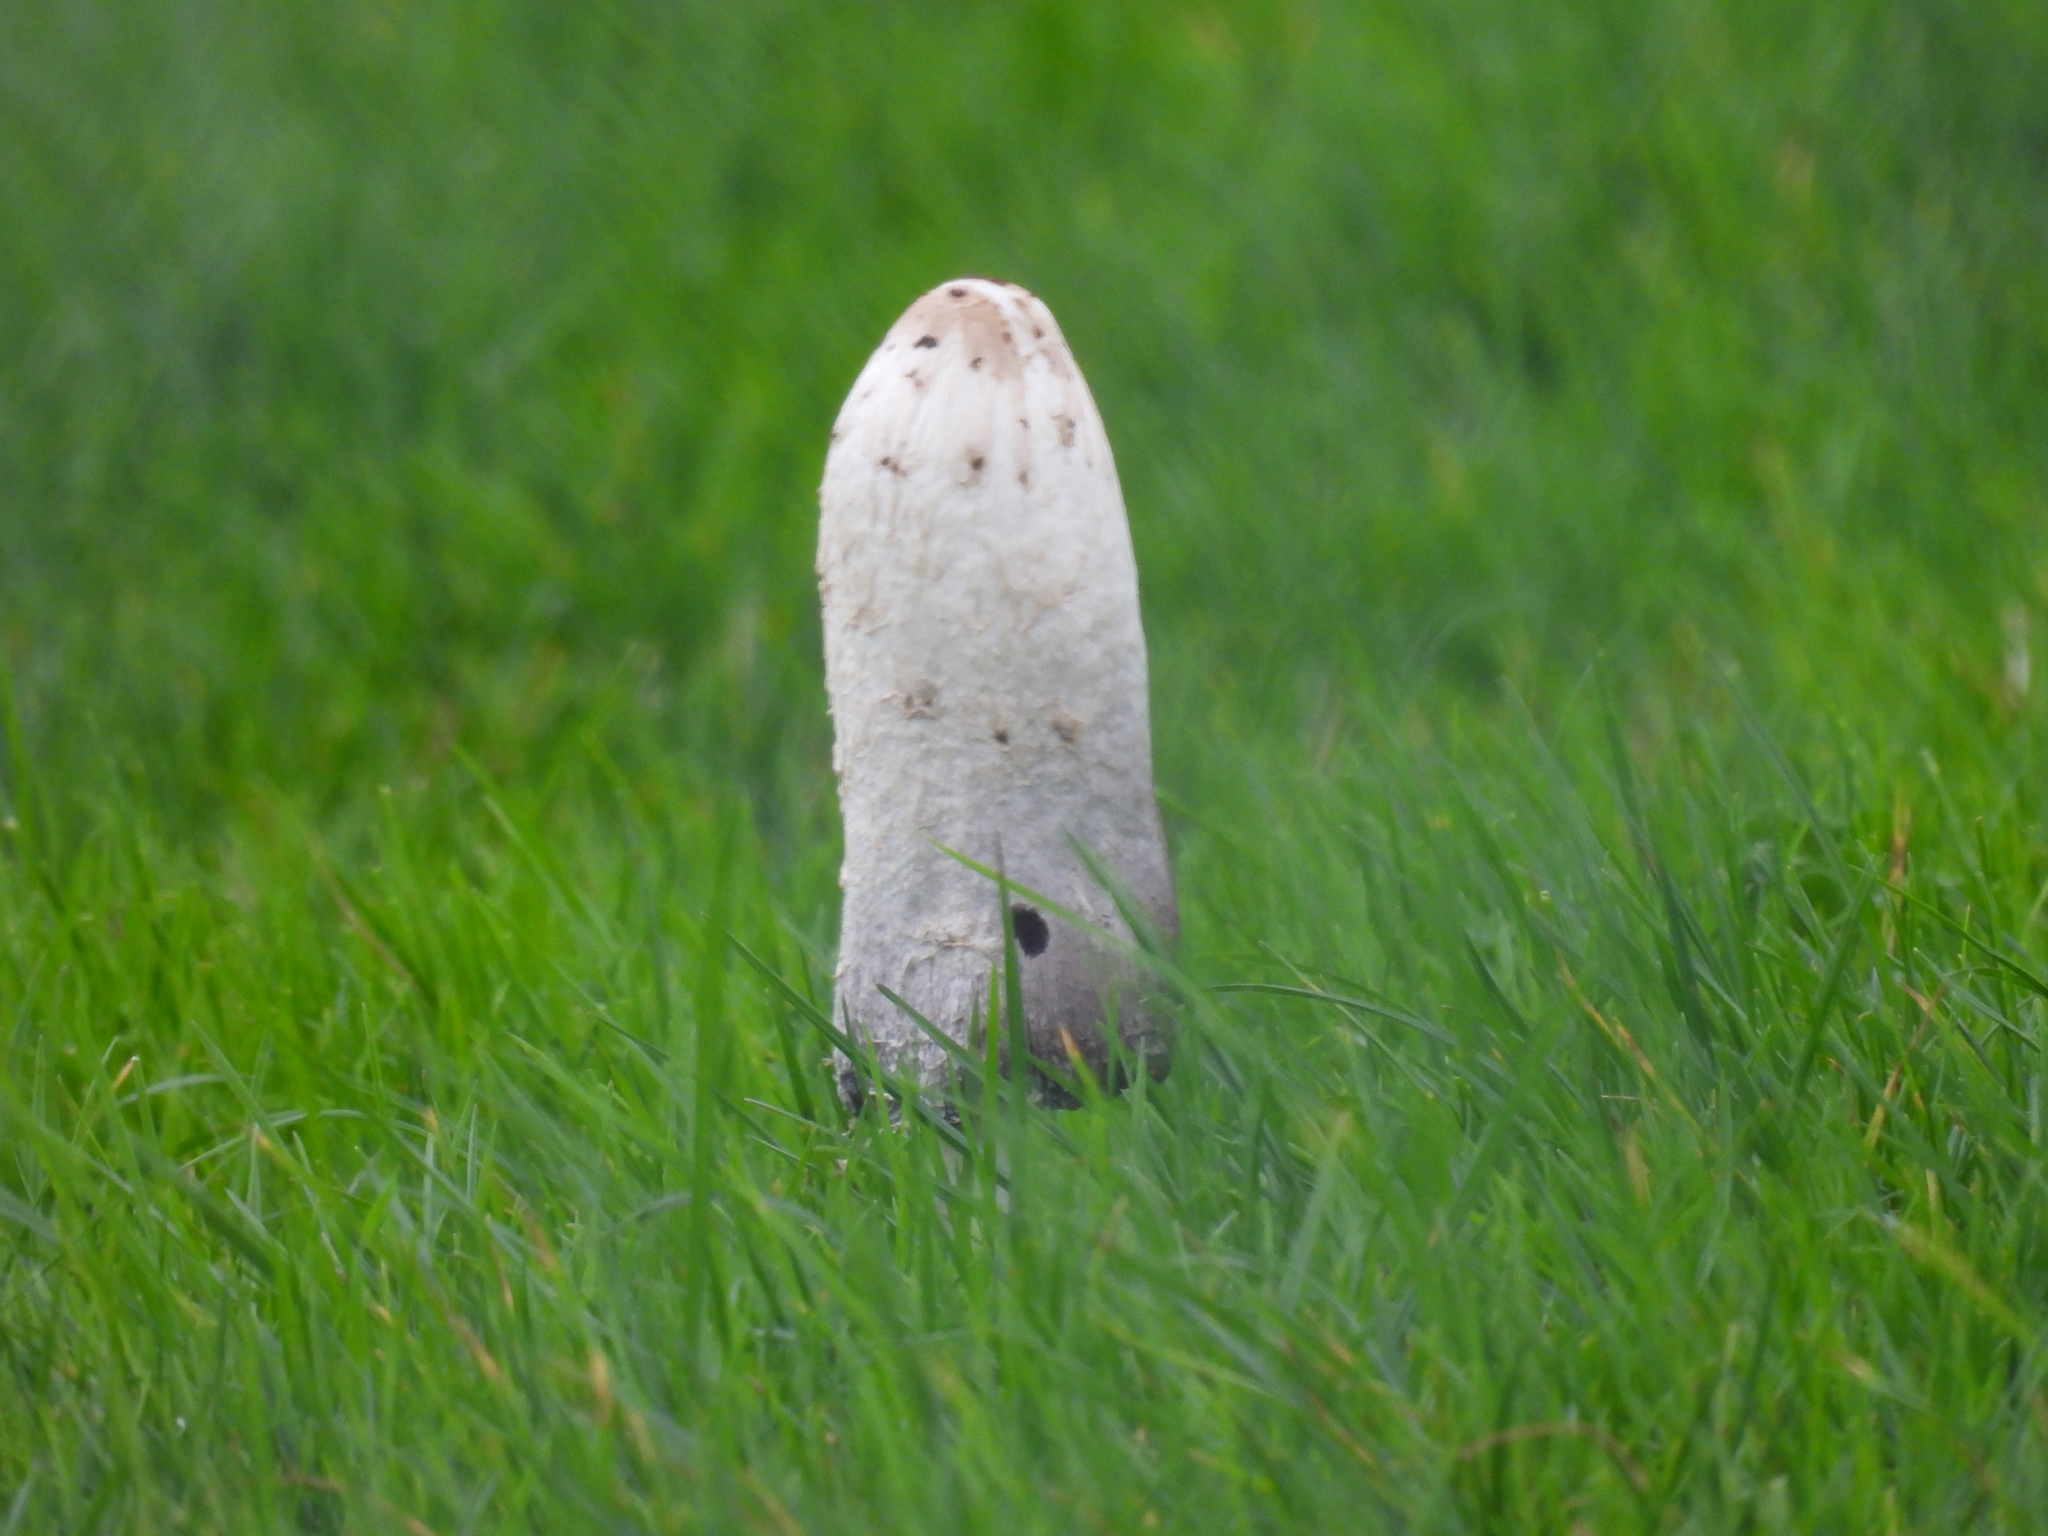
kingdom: Fungi
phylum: Basidiomycota
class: Agaricomycetes
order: Agaricales
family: Agaricaceae
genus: Coprinus
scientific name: Coprinus comatus
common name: Lawyer's wig
